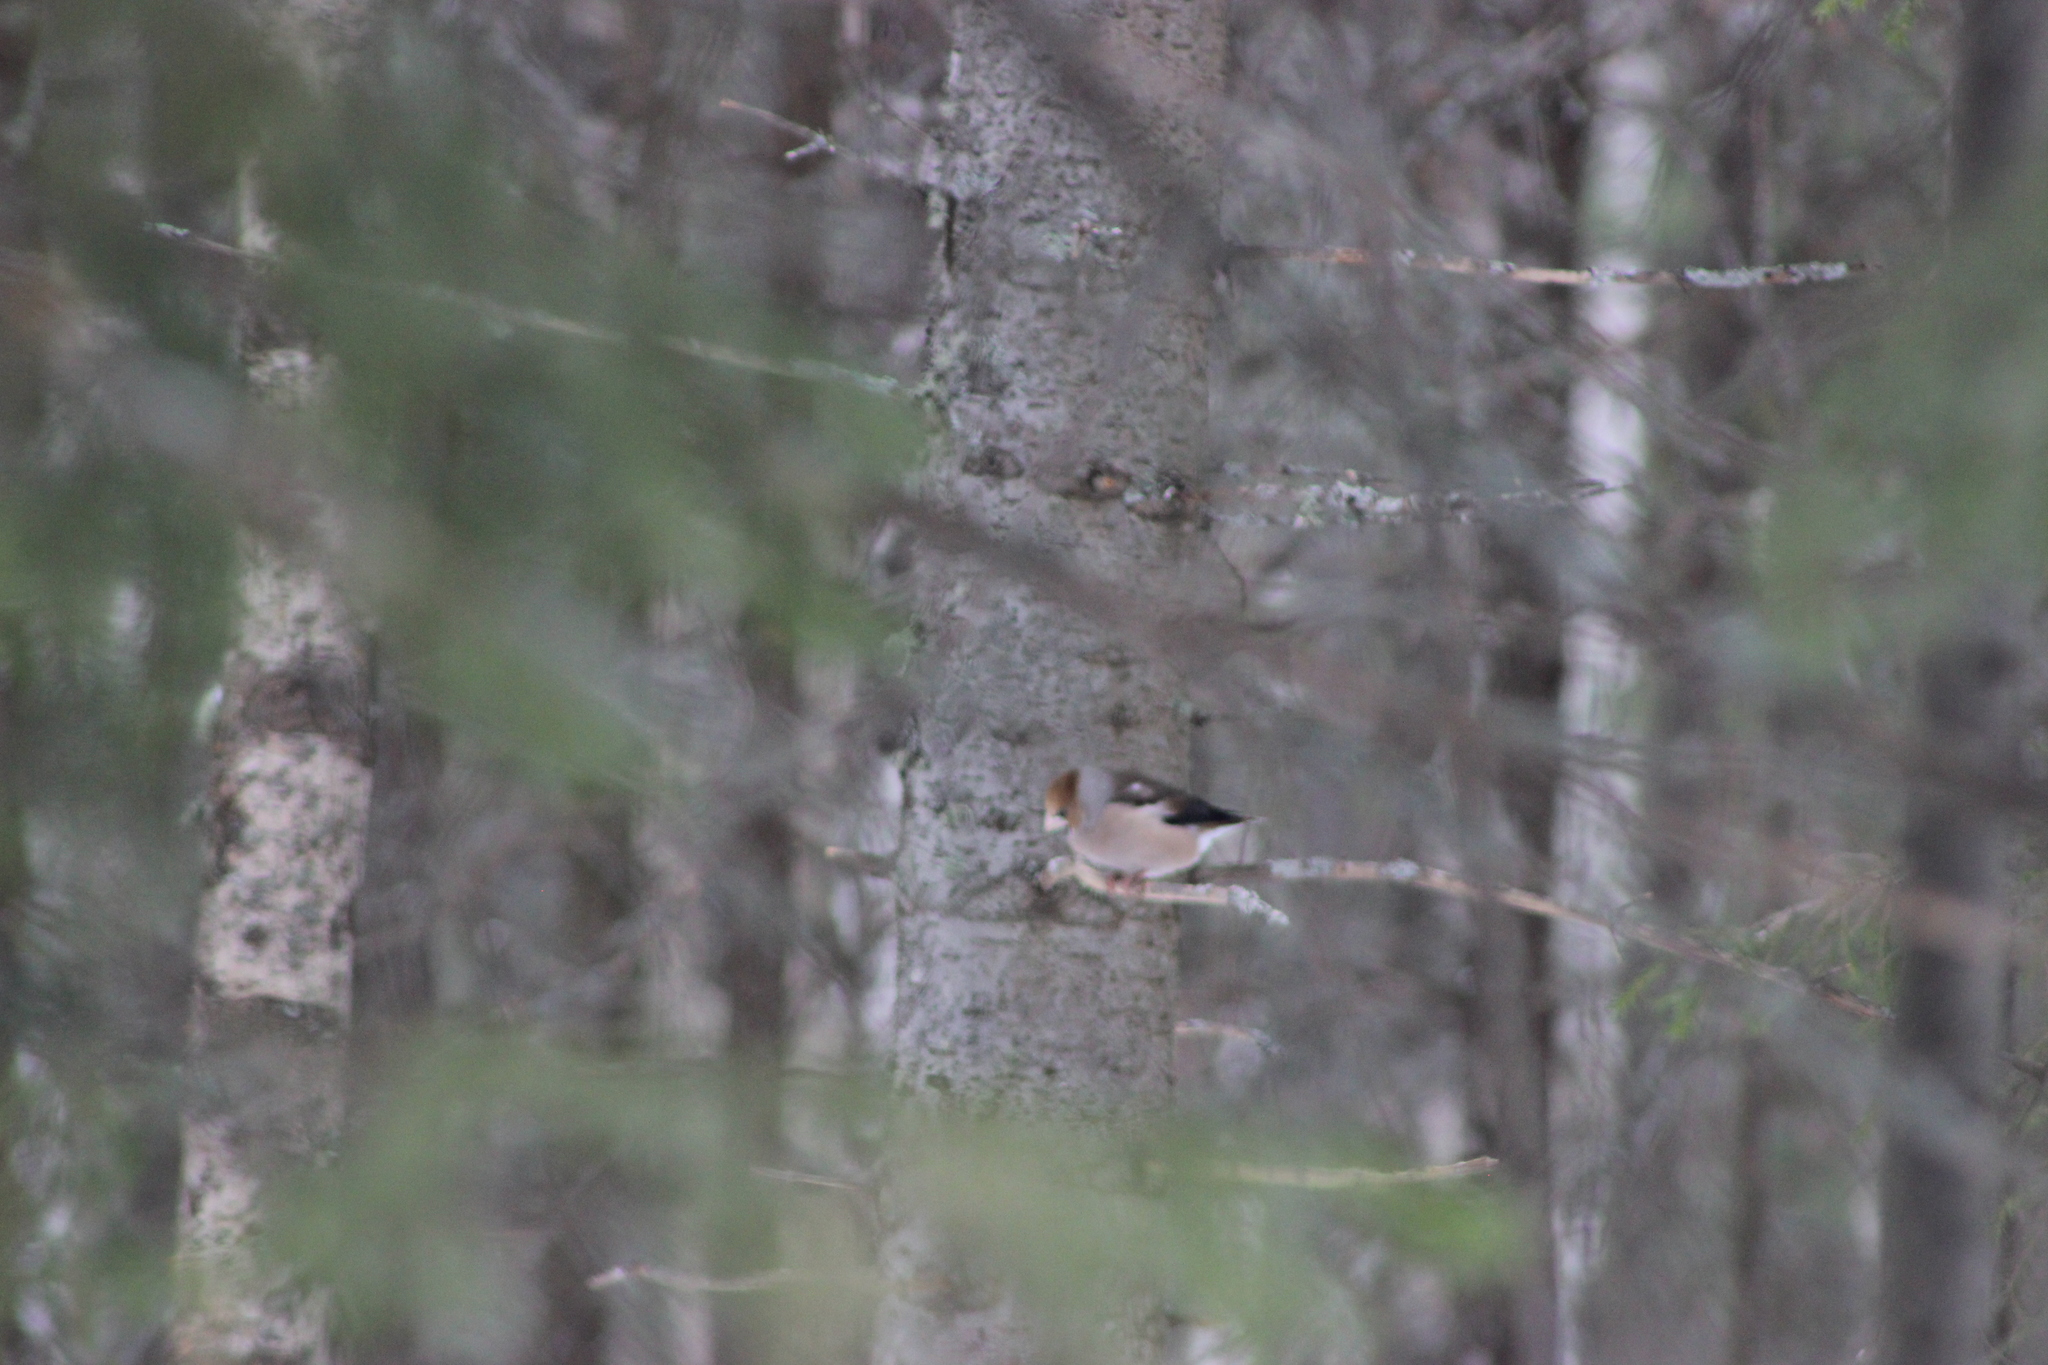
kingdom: Animalia
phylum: Chordata
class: Aves
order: Passeriformes
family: Fringillidae
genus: Coccothraustes
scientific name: Coccothraustes coccothraustes
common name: Hawfinch
